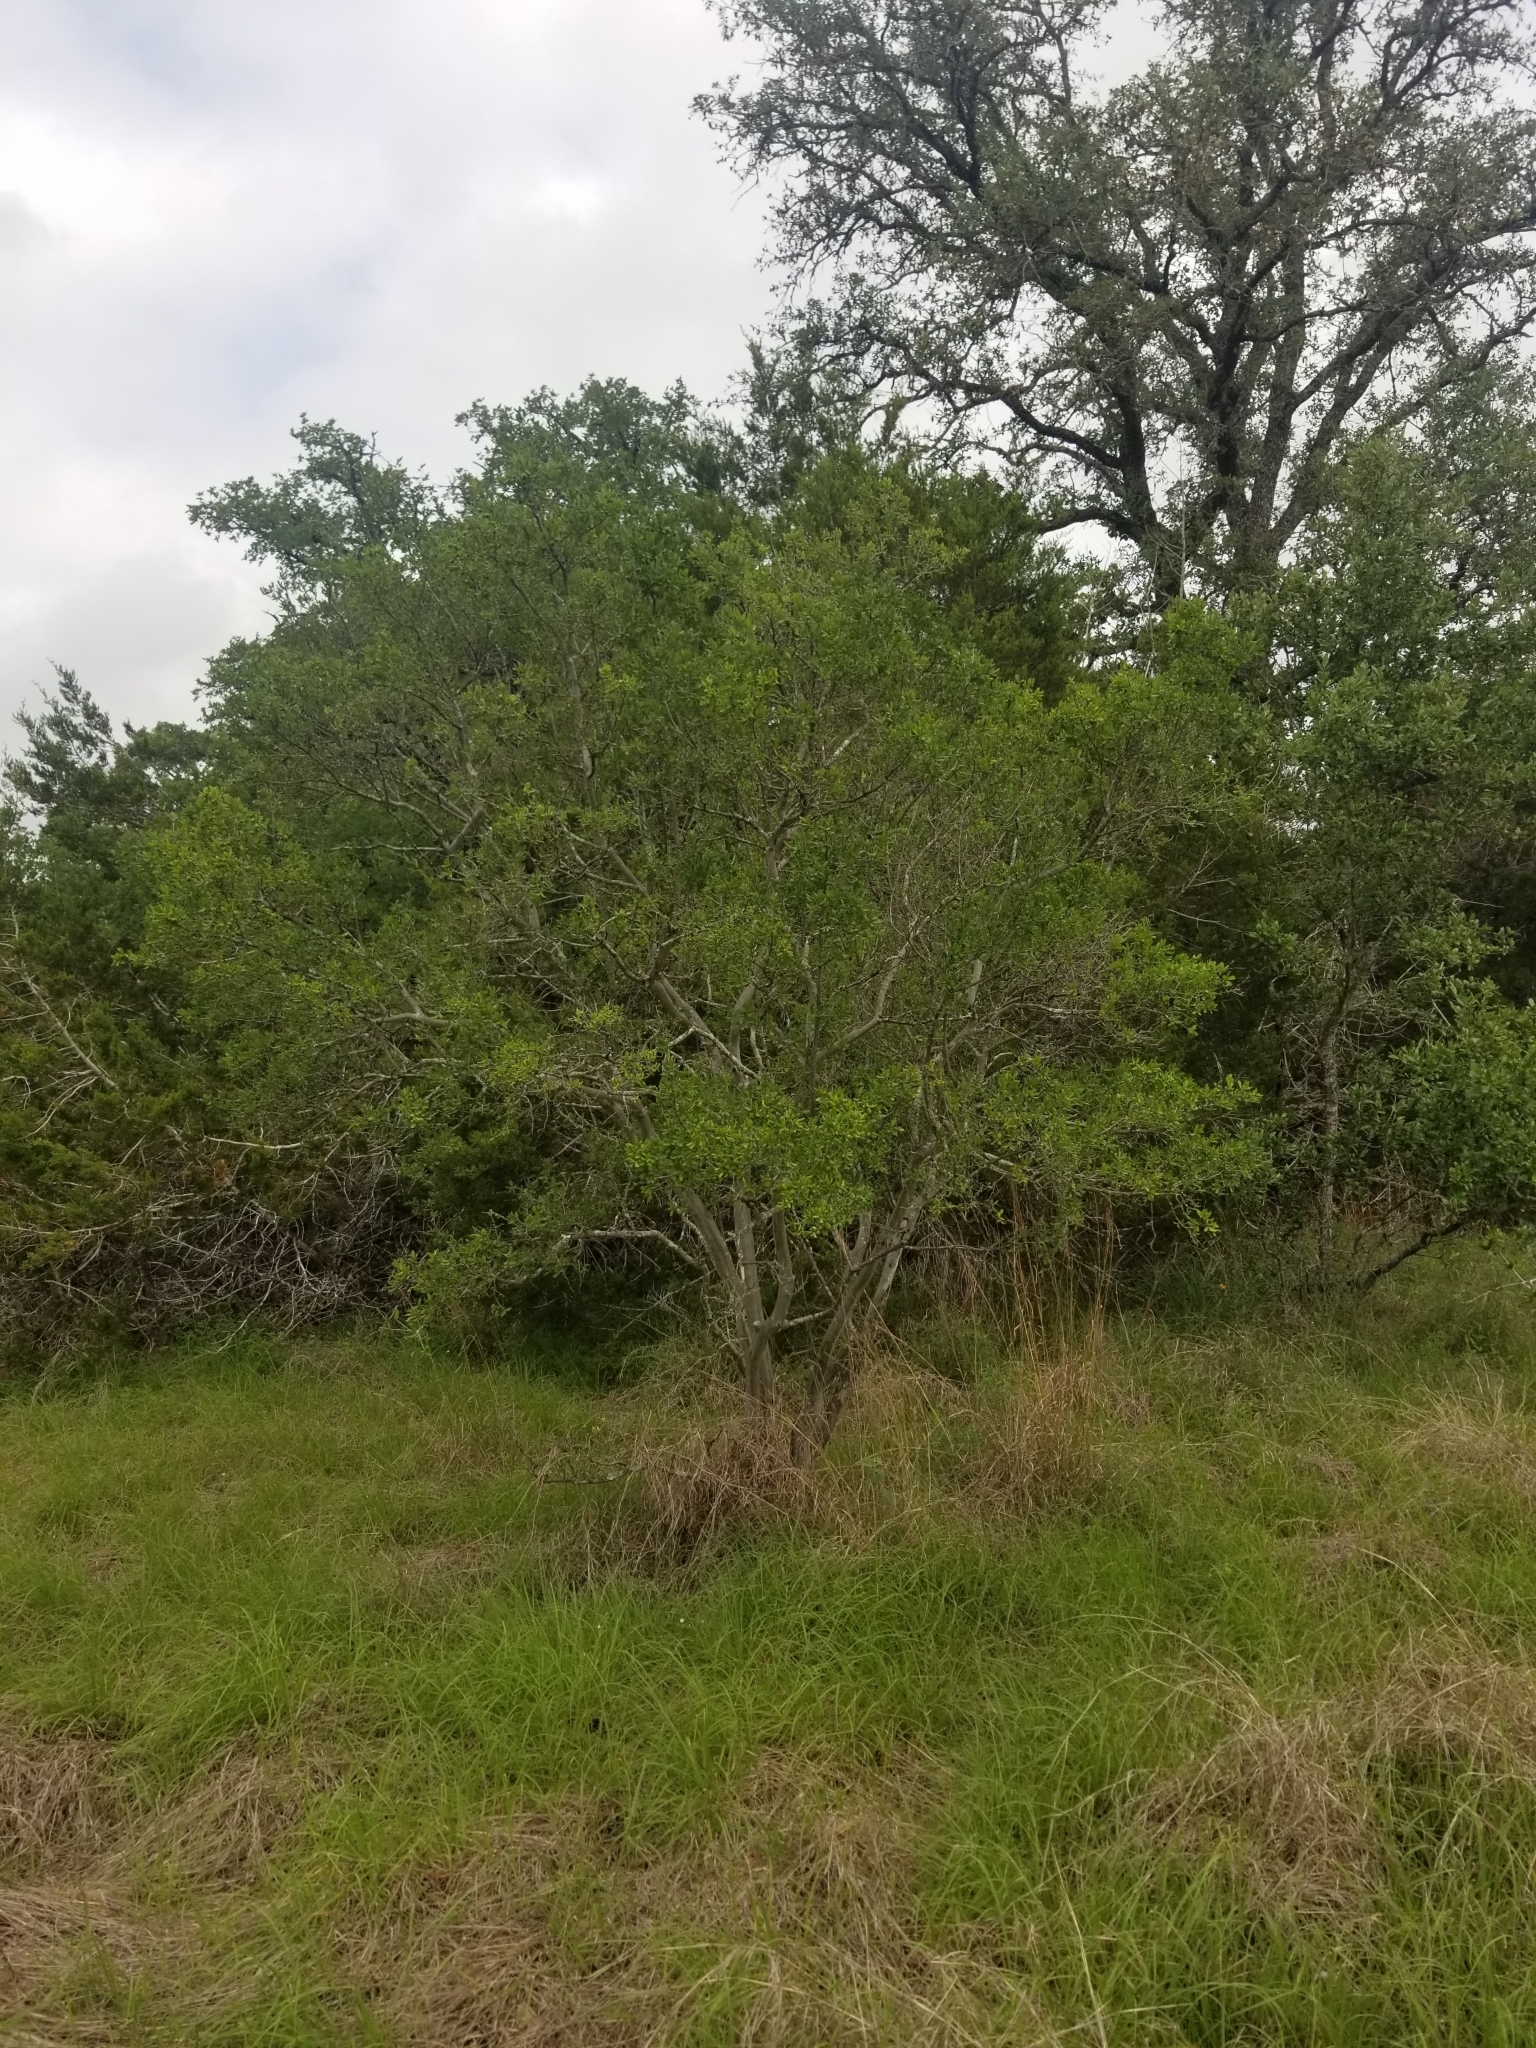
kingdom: Plantae
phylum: Tracheophyta
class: Magnoliopsida
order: Ericales
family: Ebenaceae
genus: Diospyros
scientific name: Diospyros texana
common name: Texas persimmon
